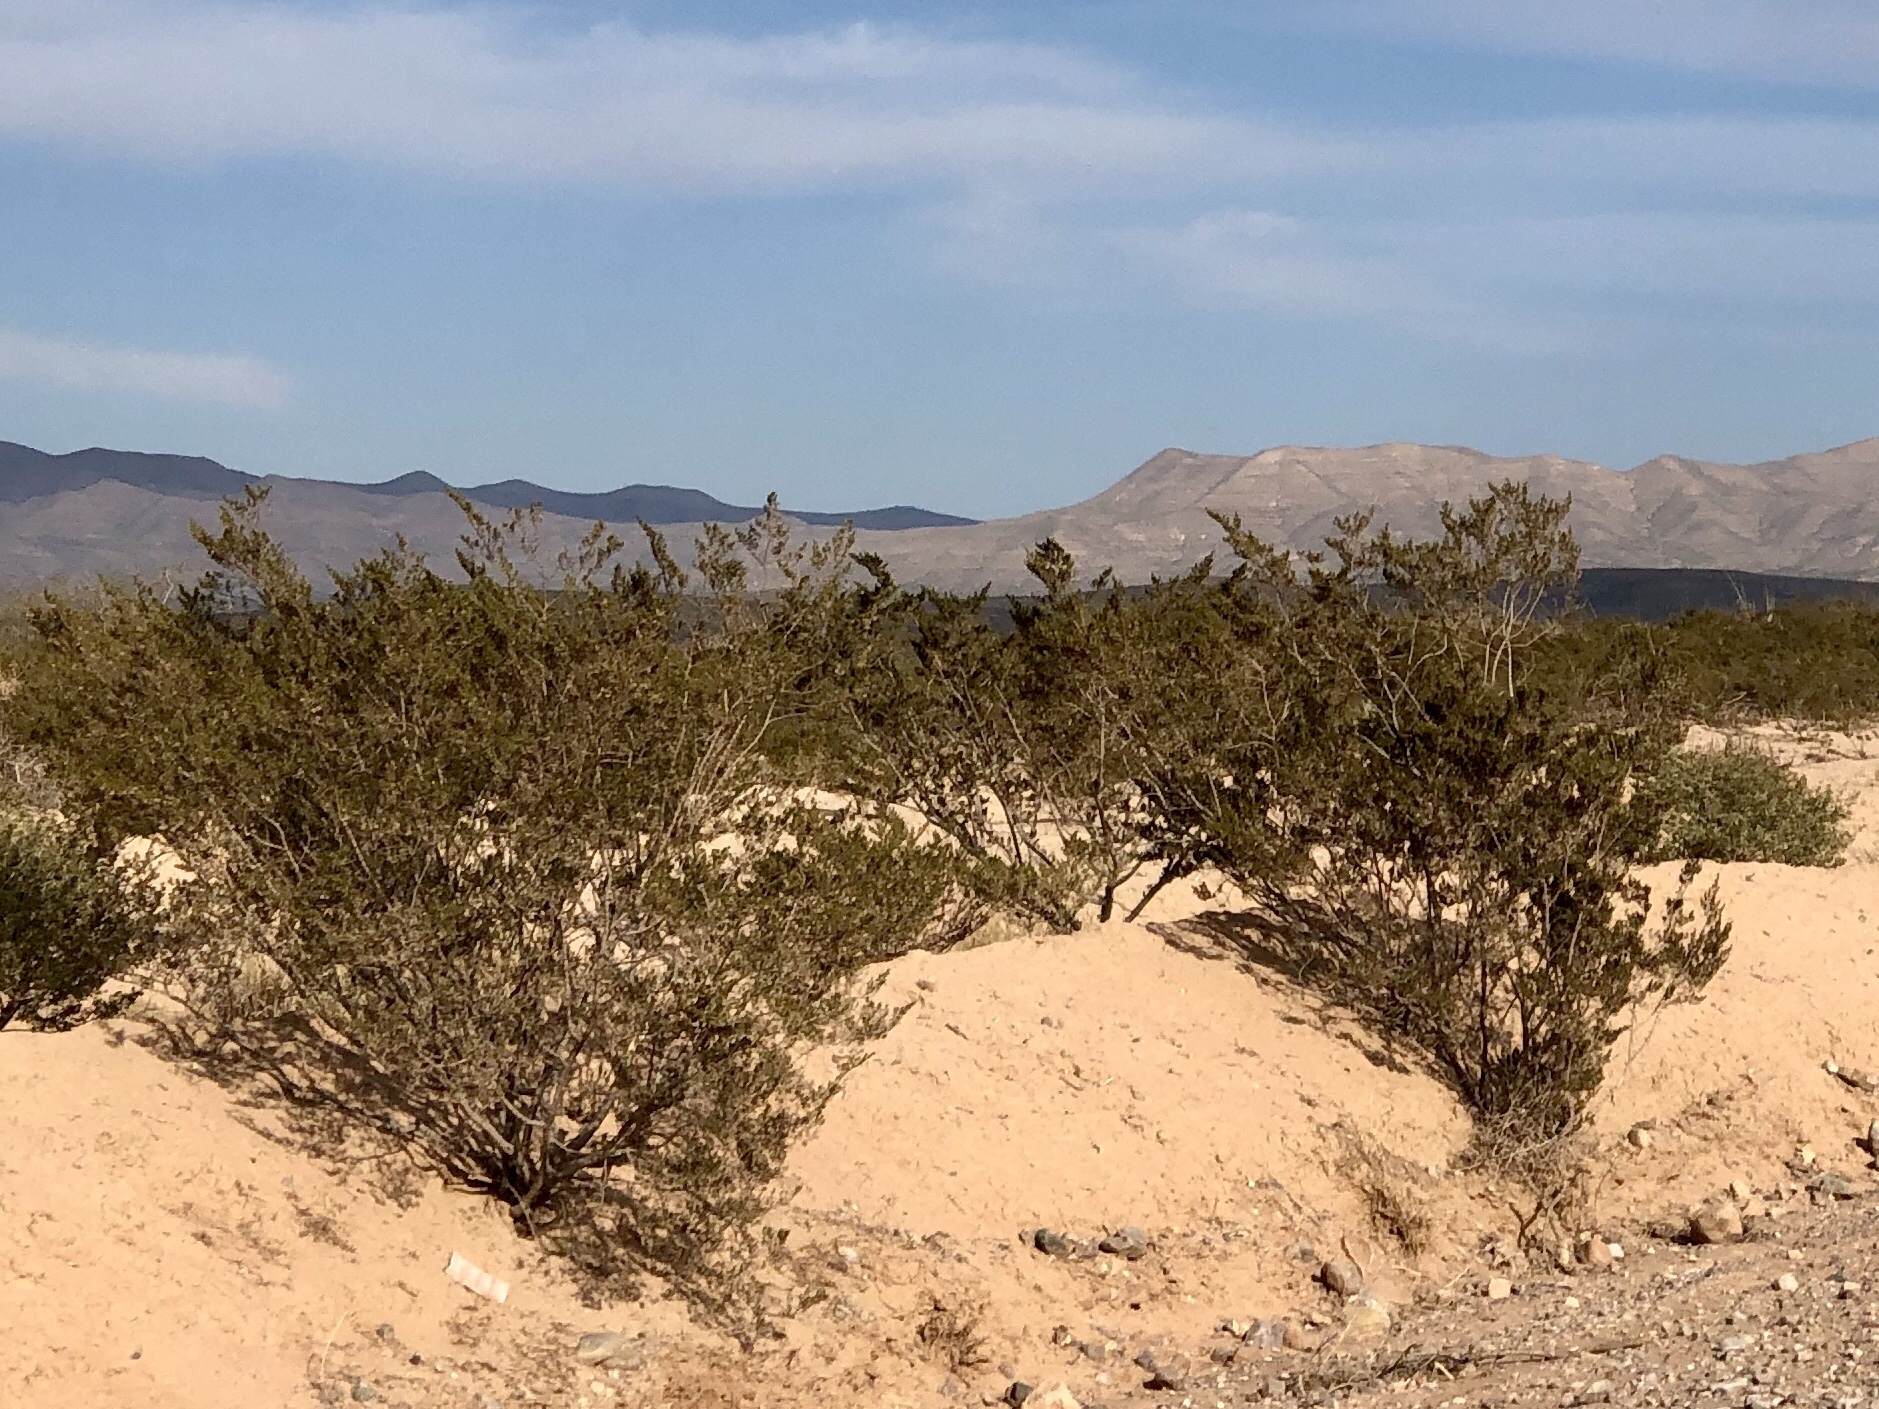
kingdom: Plantae
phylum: Tracheophyta
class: Magnoliopsida
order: Zygophyllales
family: Zygophyllaceae
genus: Larrea
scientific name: Larrea tridentata
